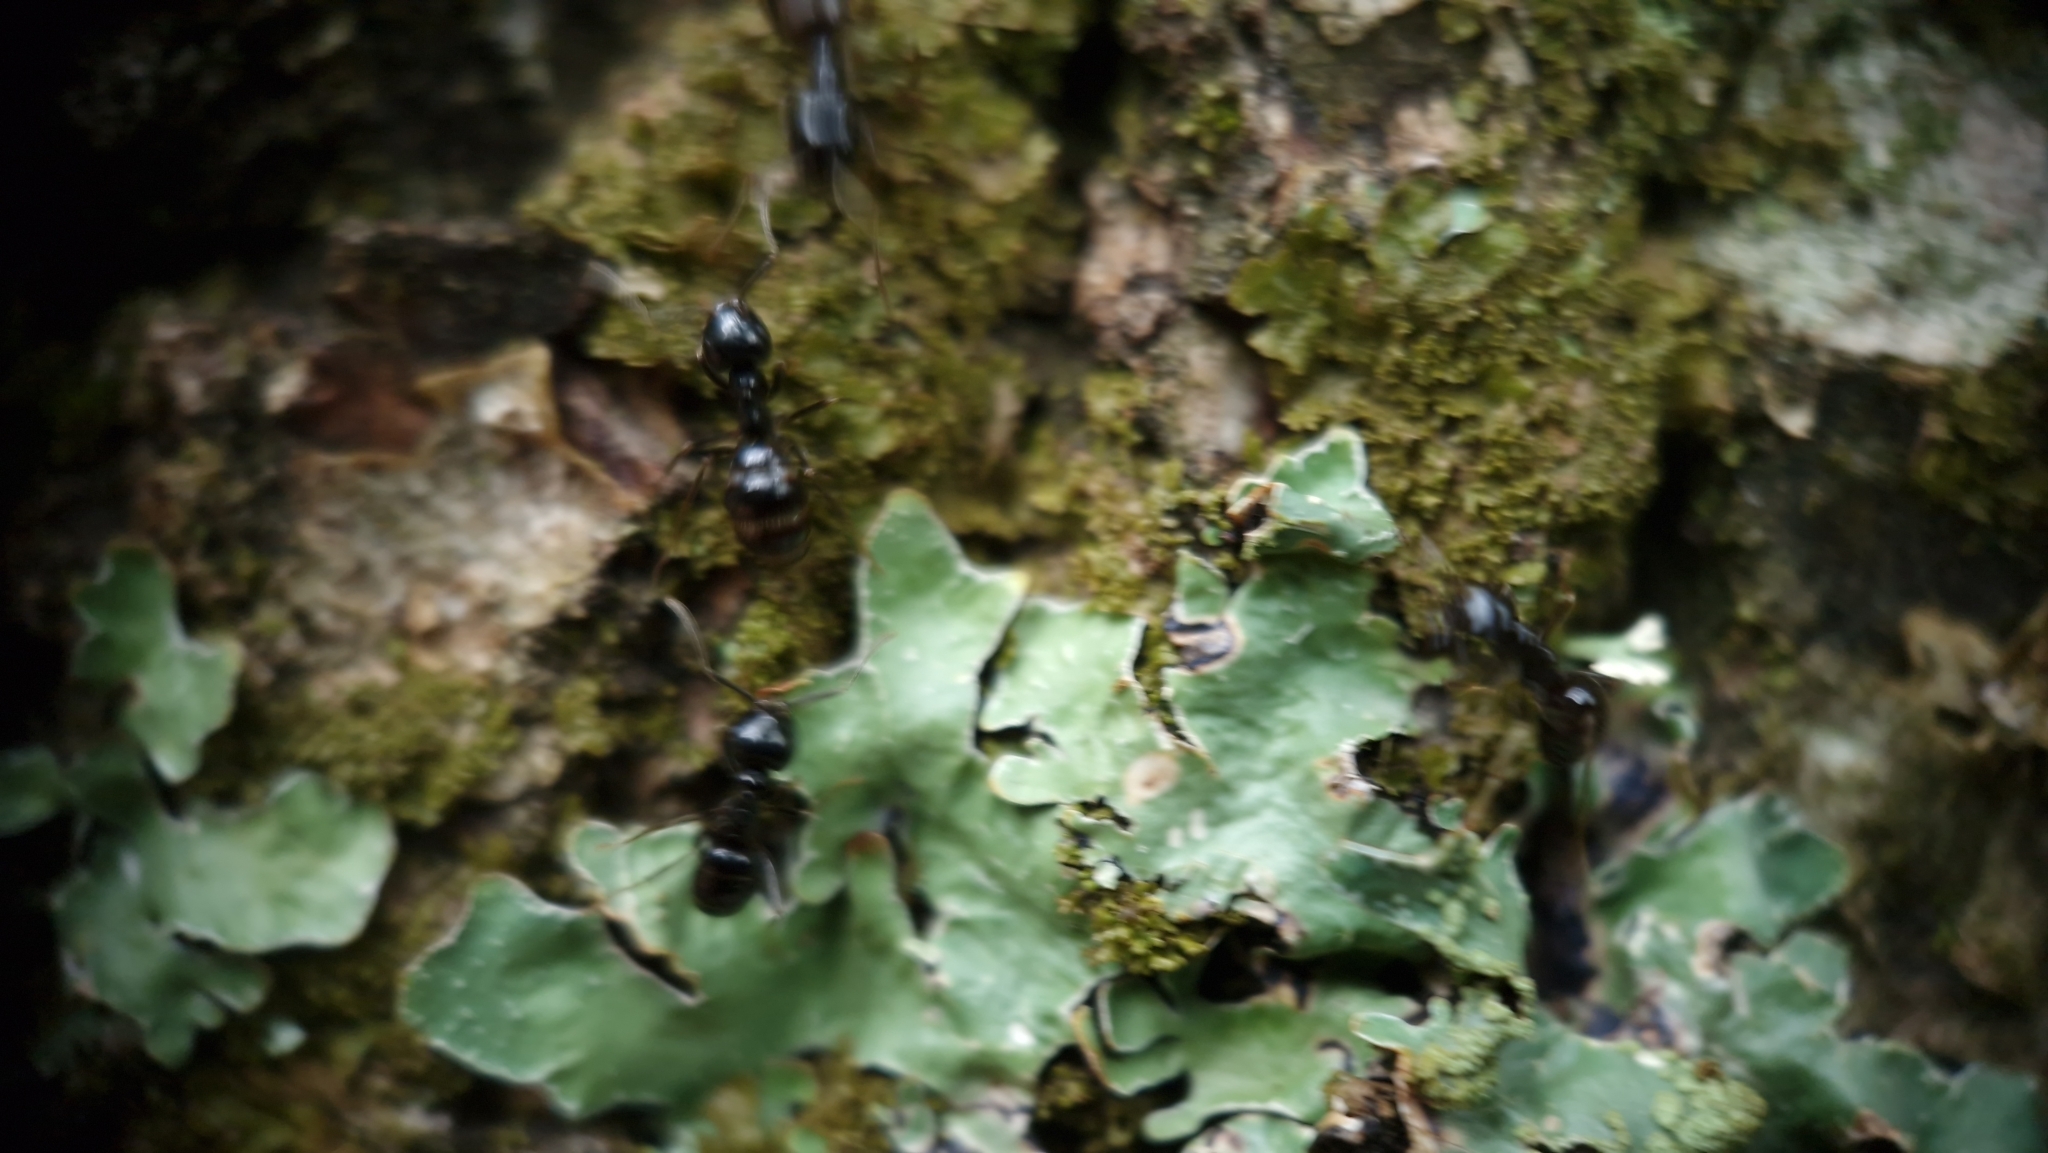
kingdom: Animalia
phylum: Arthropoda
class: Insecta
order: Hymenoptera
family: Formicidae
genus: Lasius
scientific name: Lasius fuliginosus
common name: Jet ant
